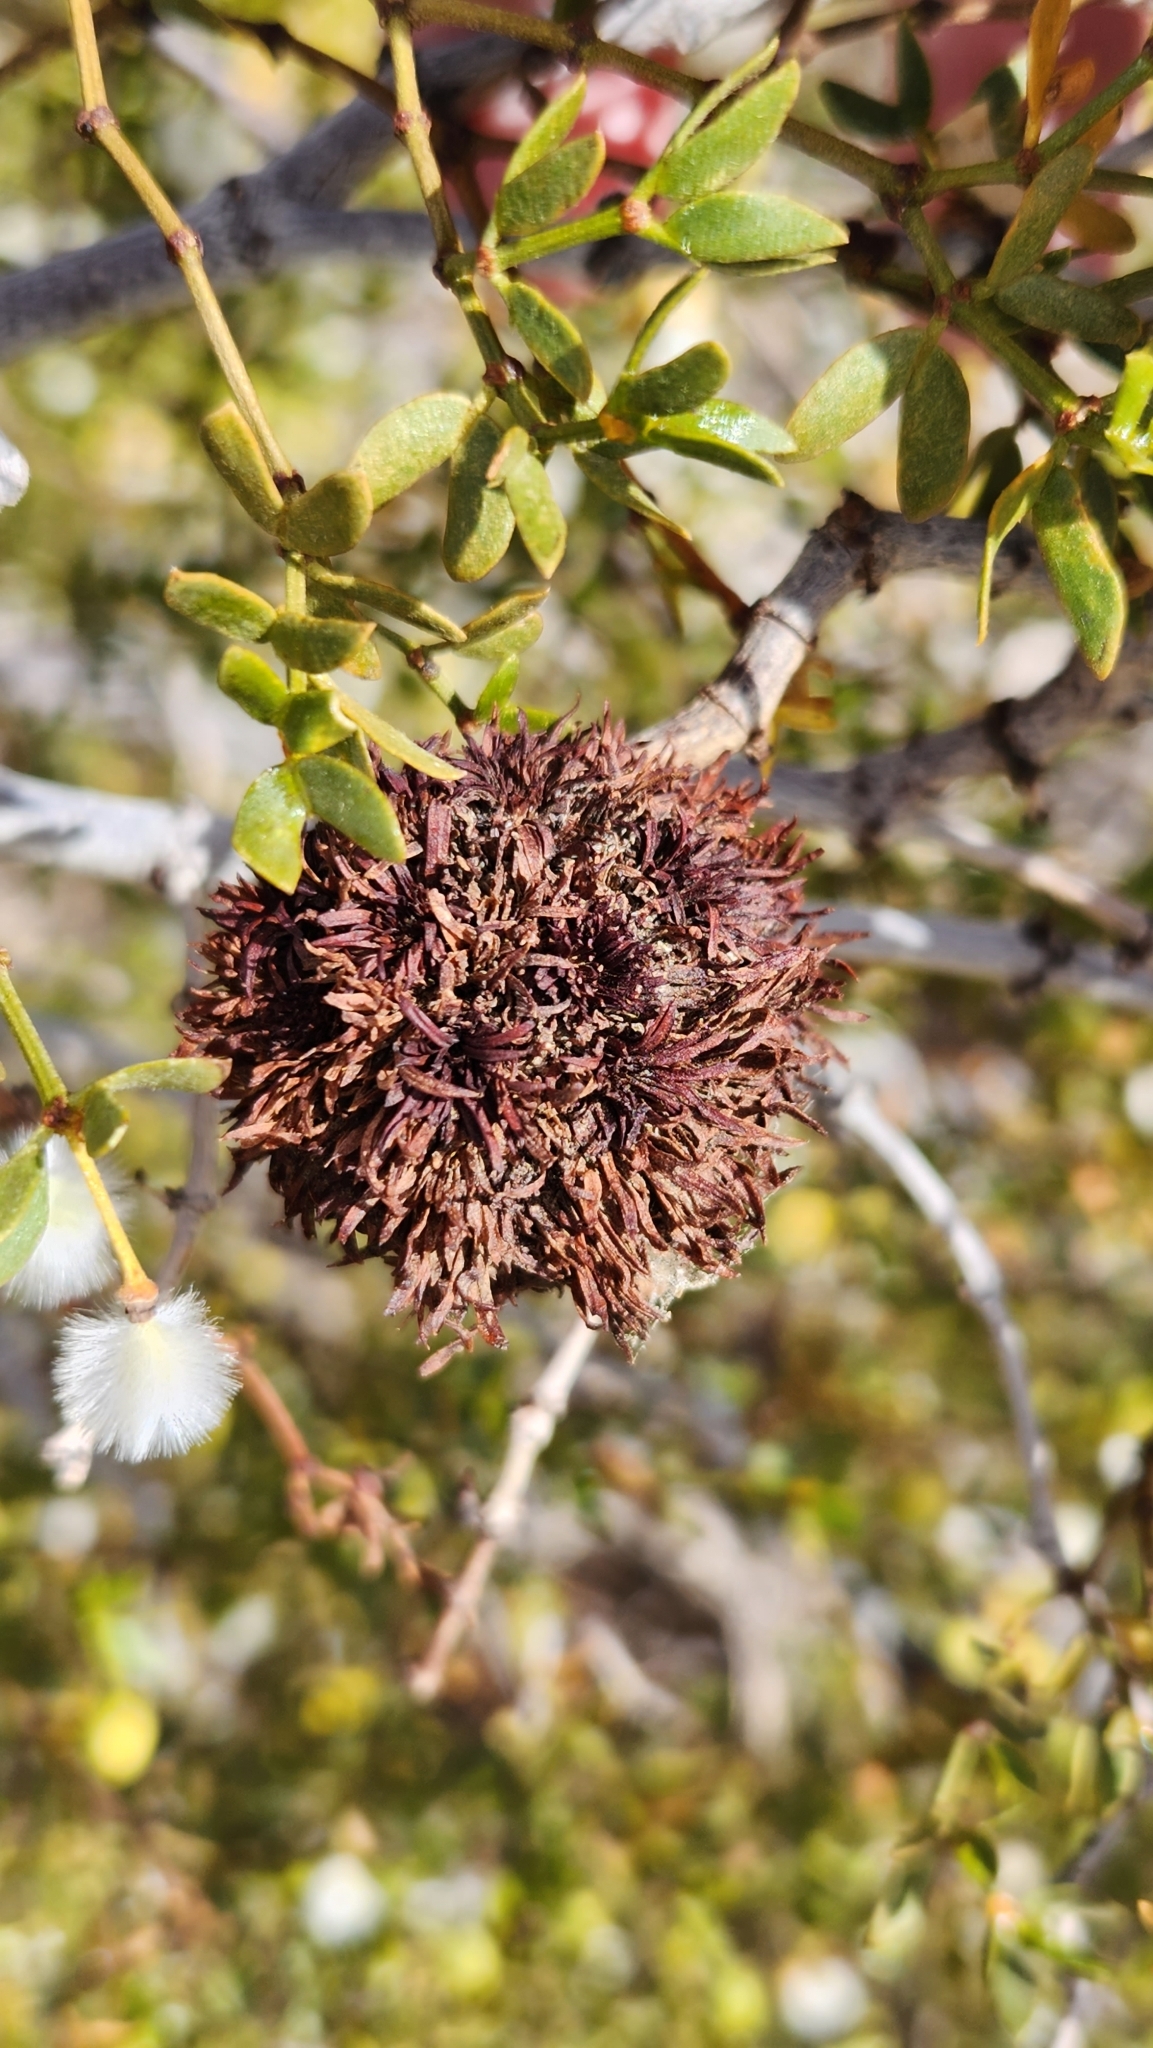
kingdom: Animalia
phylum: Arthropoda
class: Insecta
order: Diptera
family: Cecidomyiidae
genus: Asphondylia
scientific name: Asphondylia auripila
